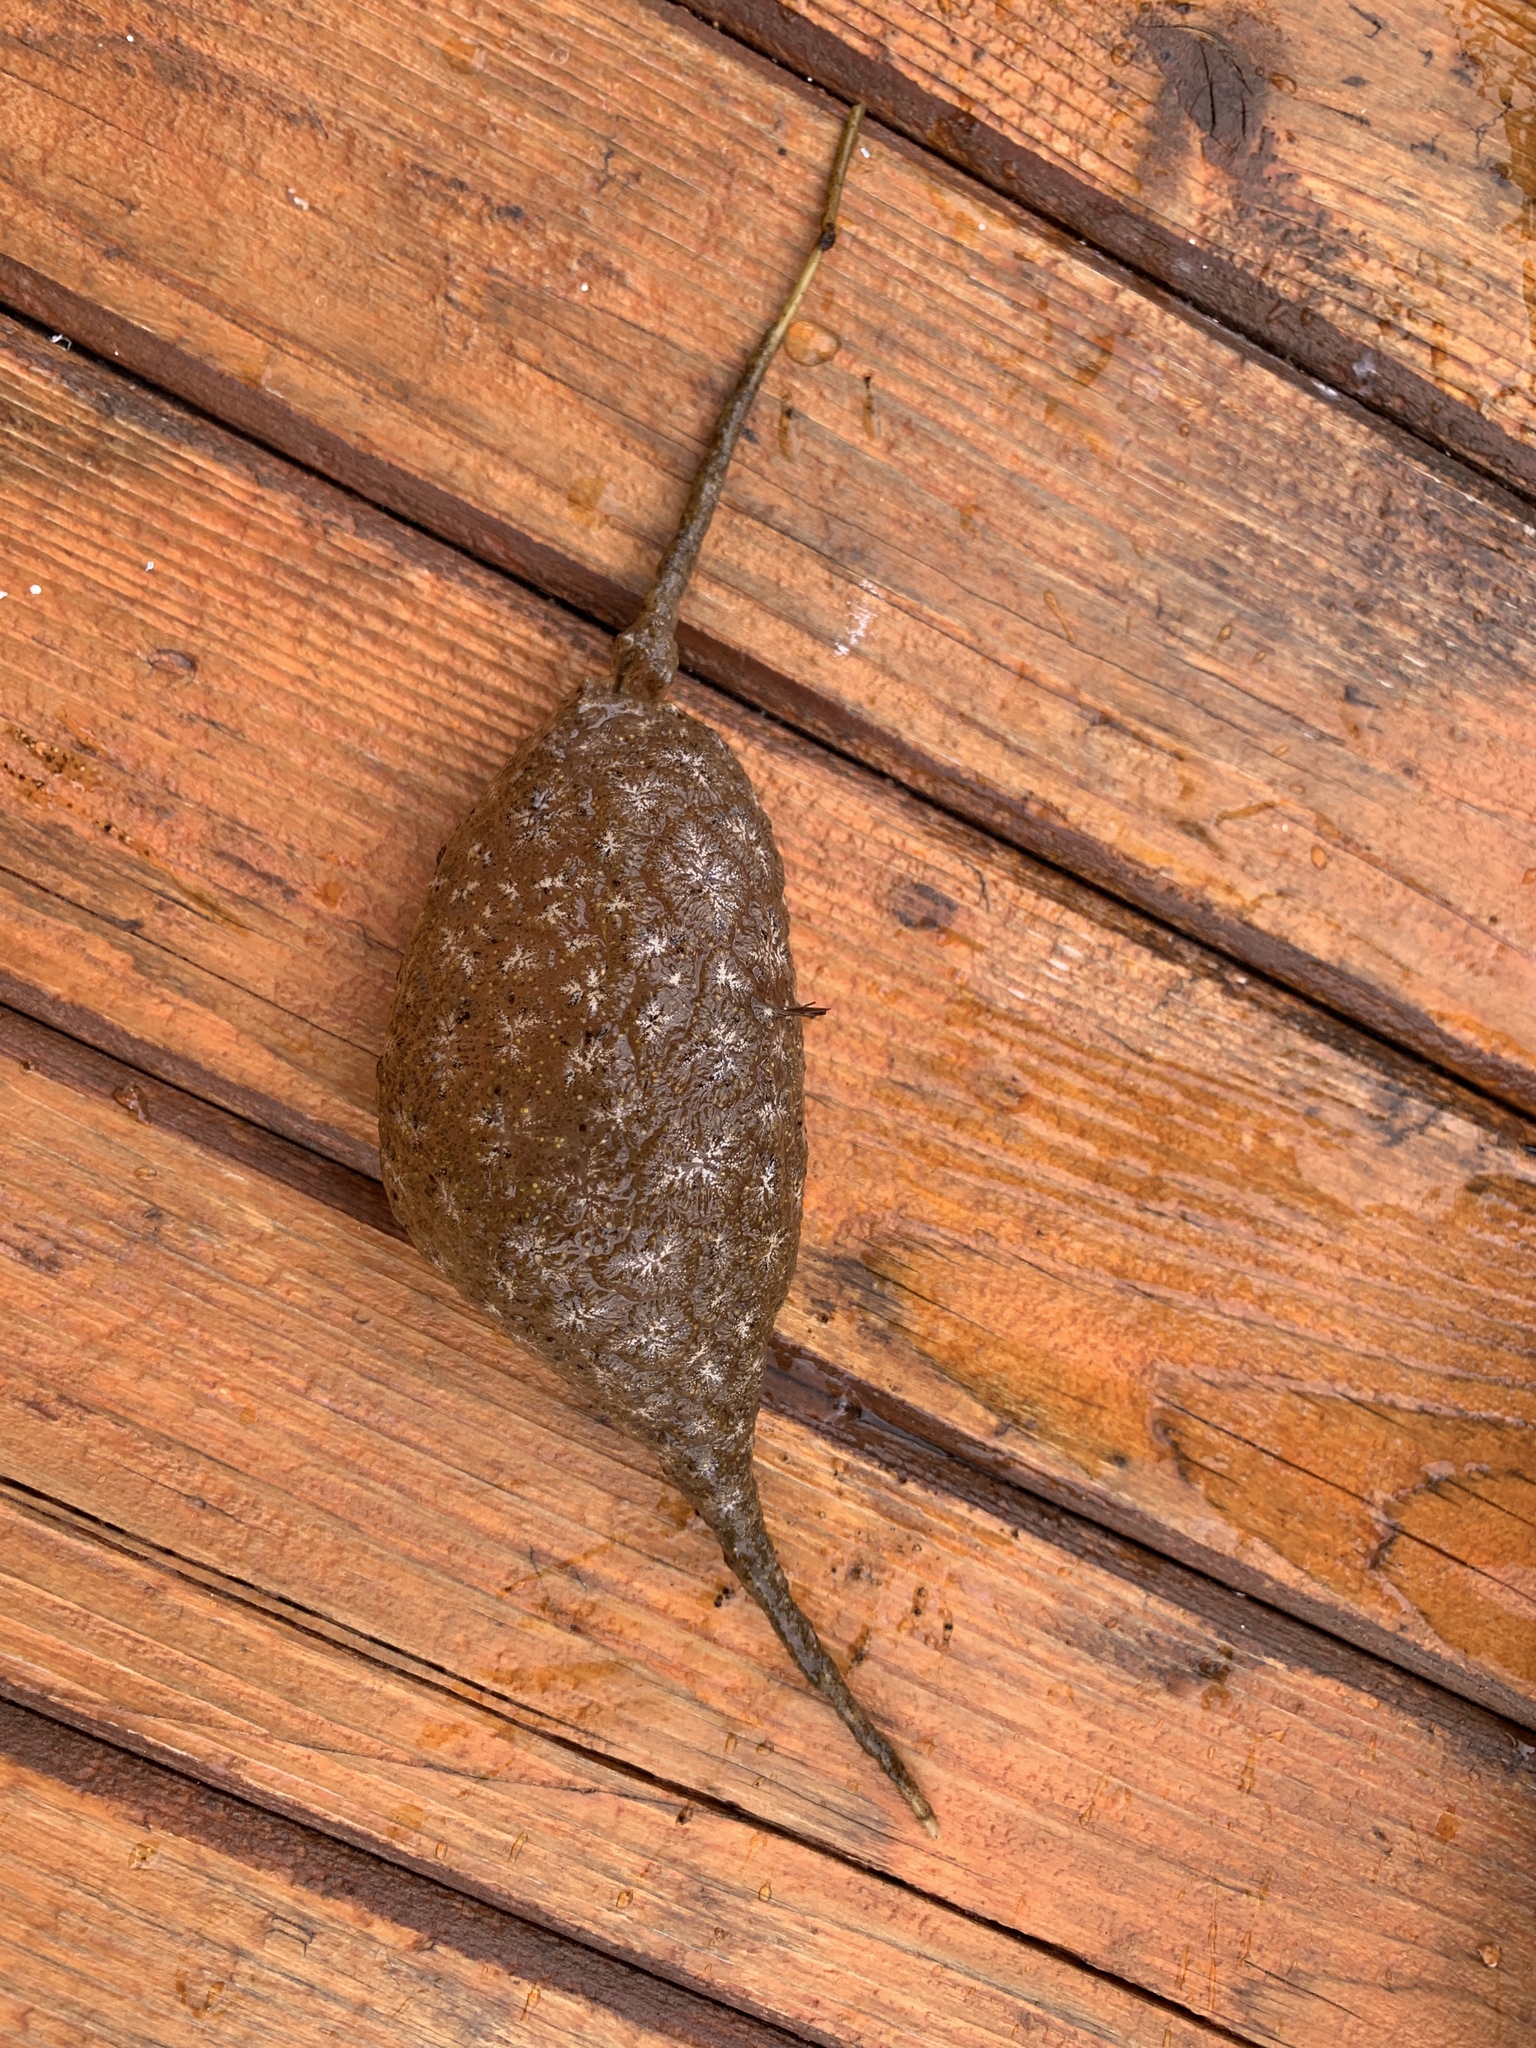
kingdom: Animalia
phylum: Bryozoa
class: Phylactolaemata
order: Plumatellida
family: Pectinatellidae
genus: Pectinatella
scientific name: Pectinatella magnifica
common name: Magnificent bryozoan
